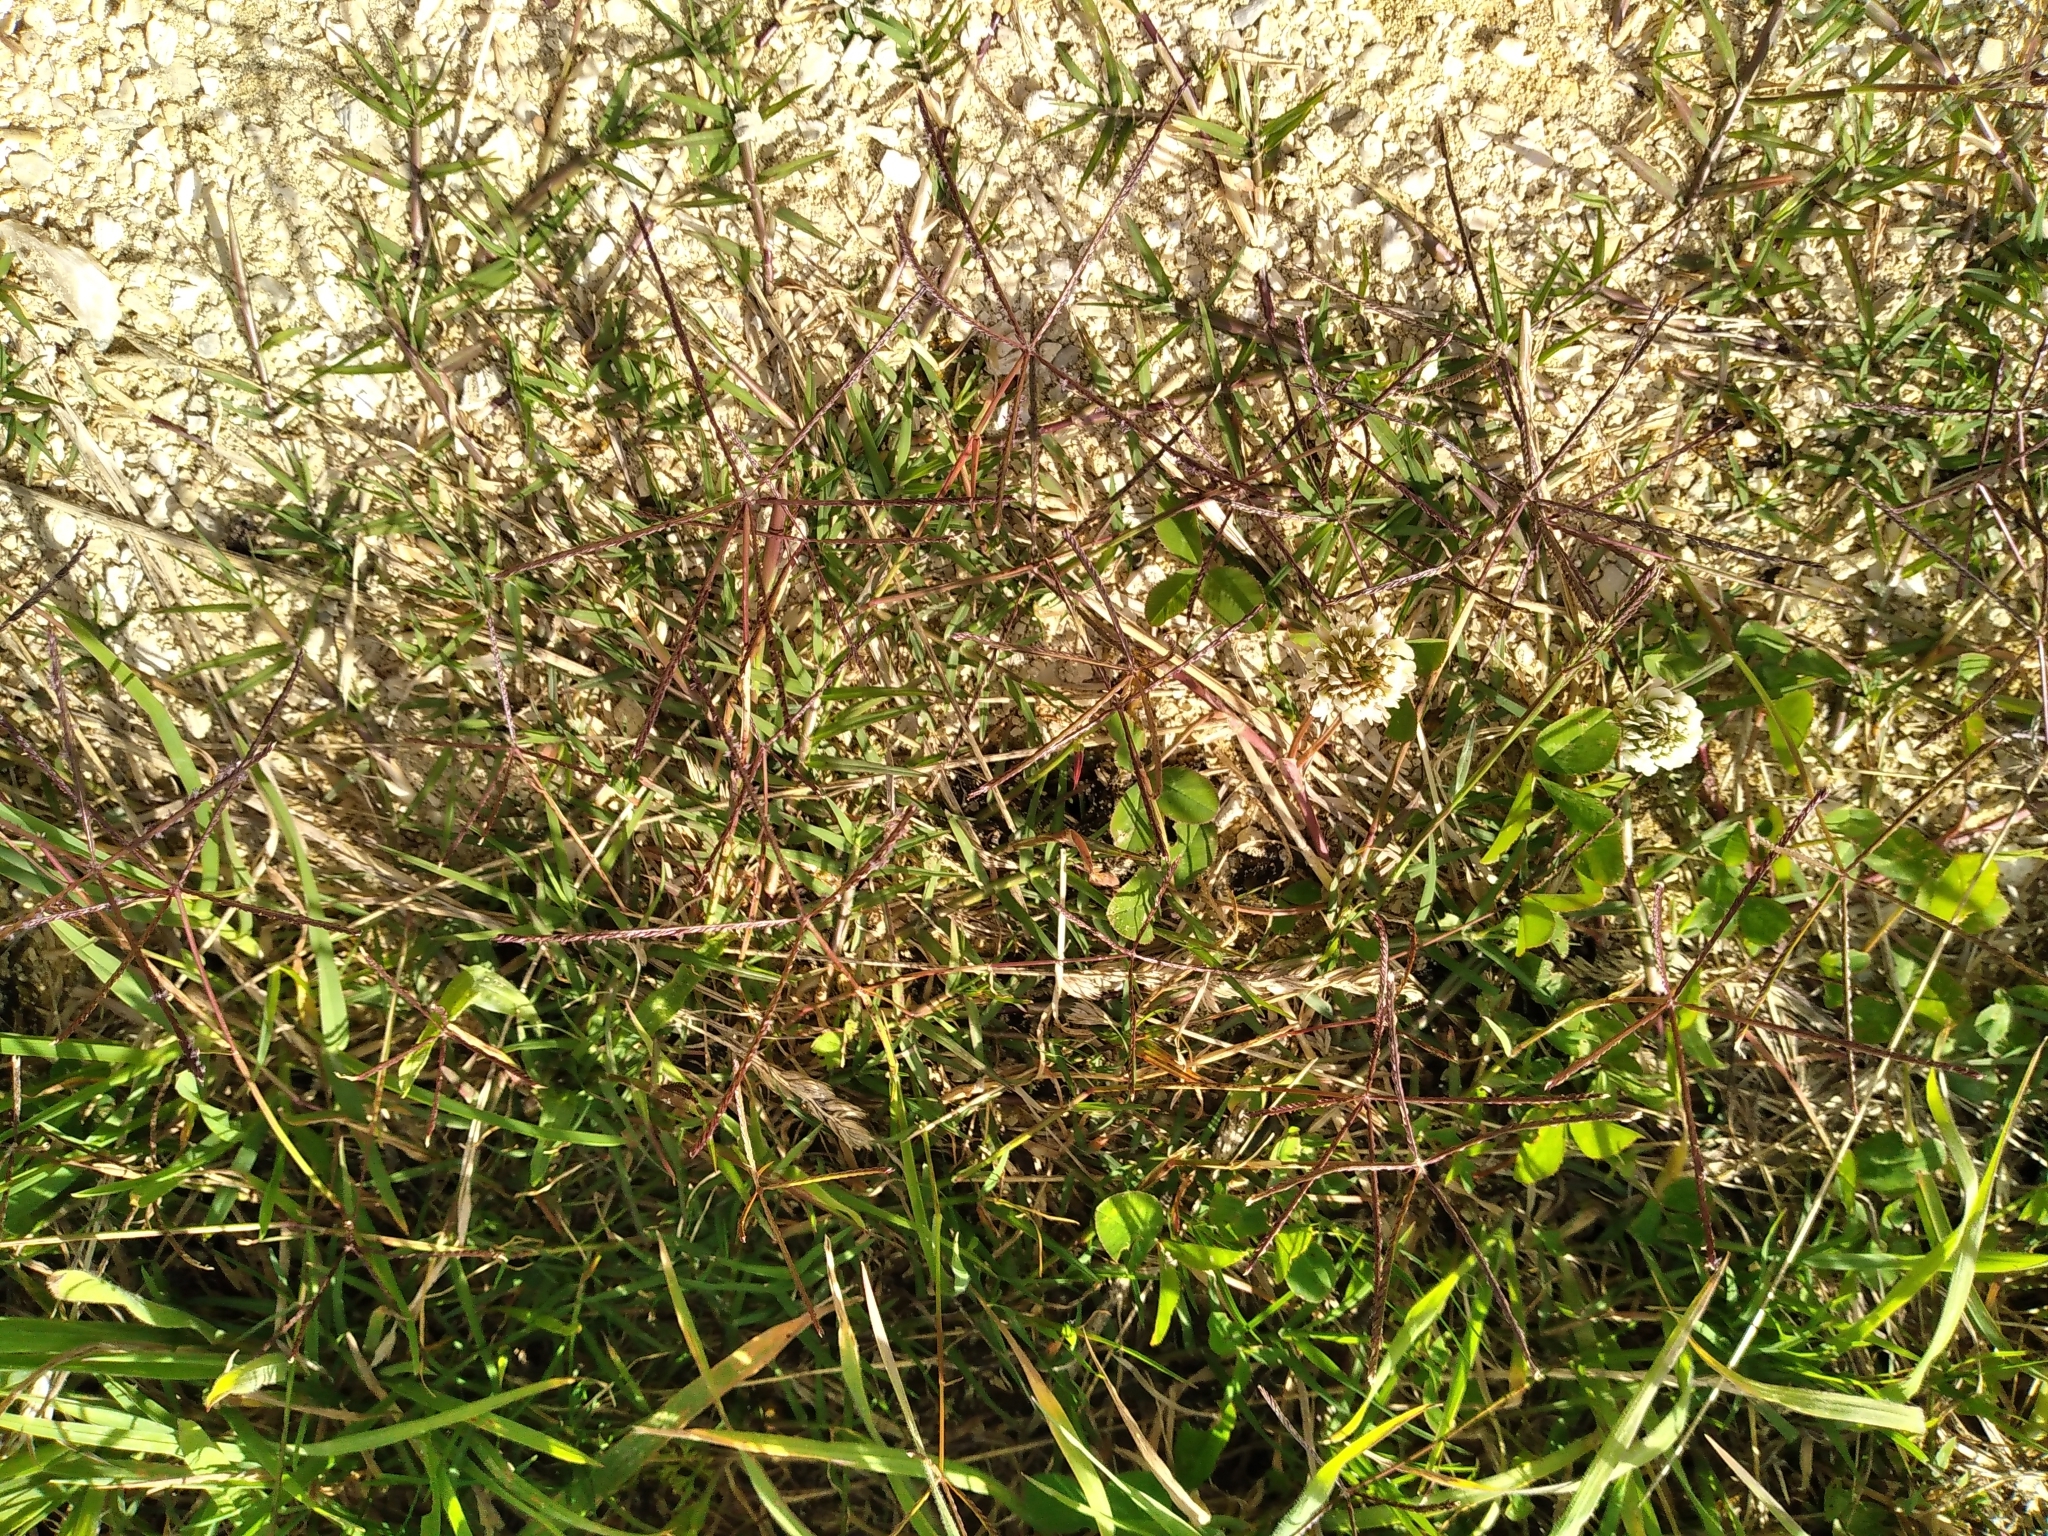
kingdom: Plantae
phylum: Tracheophyta
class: Liliopsida
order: Poales
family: Poaceae
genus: Cynodon
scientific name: Cynodon dactylon
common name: Bermuda grass
